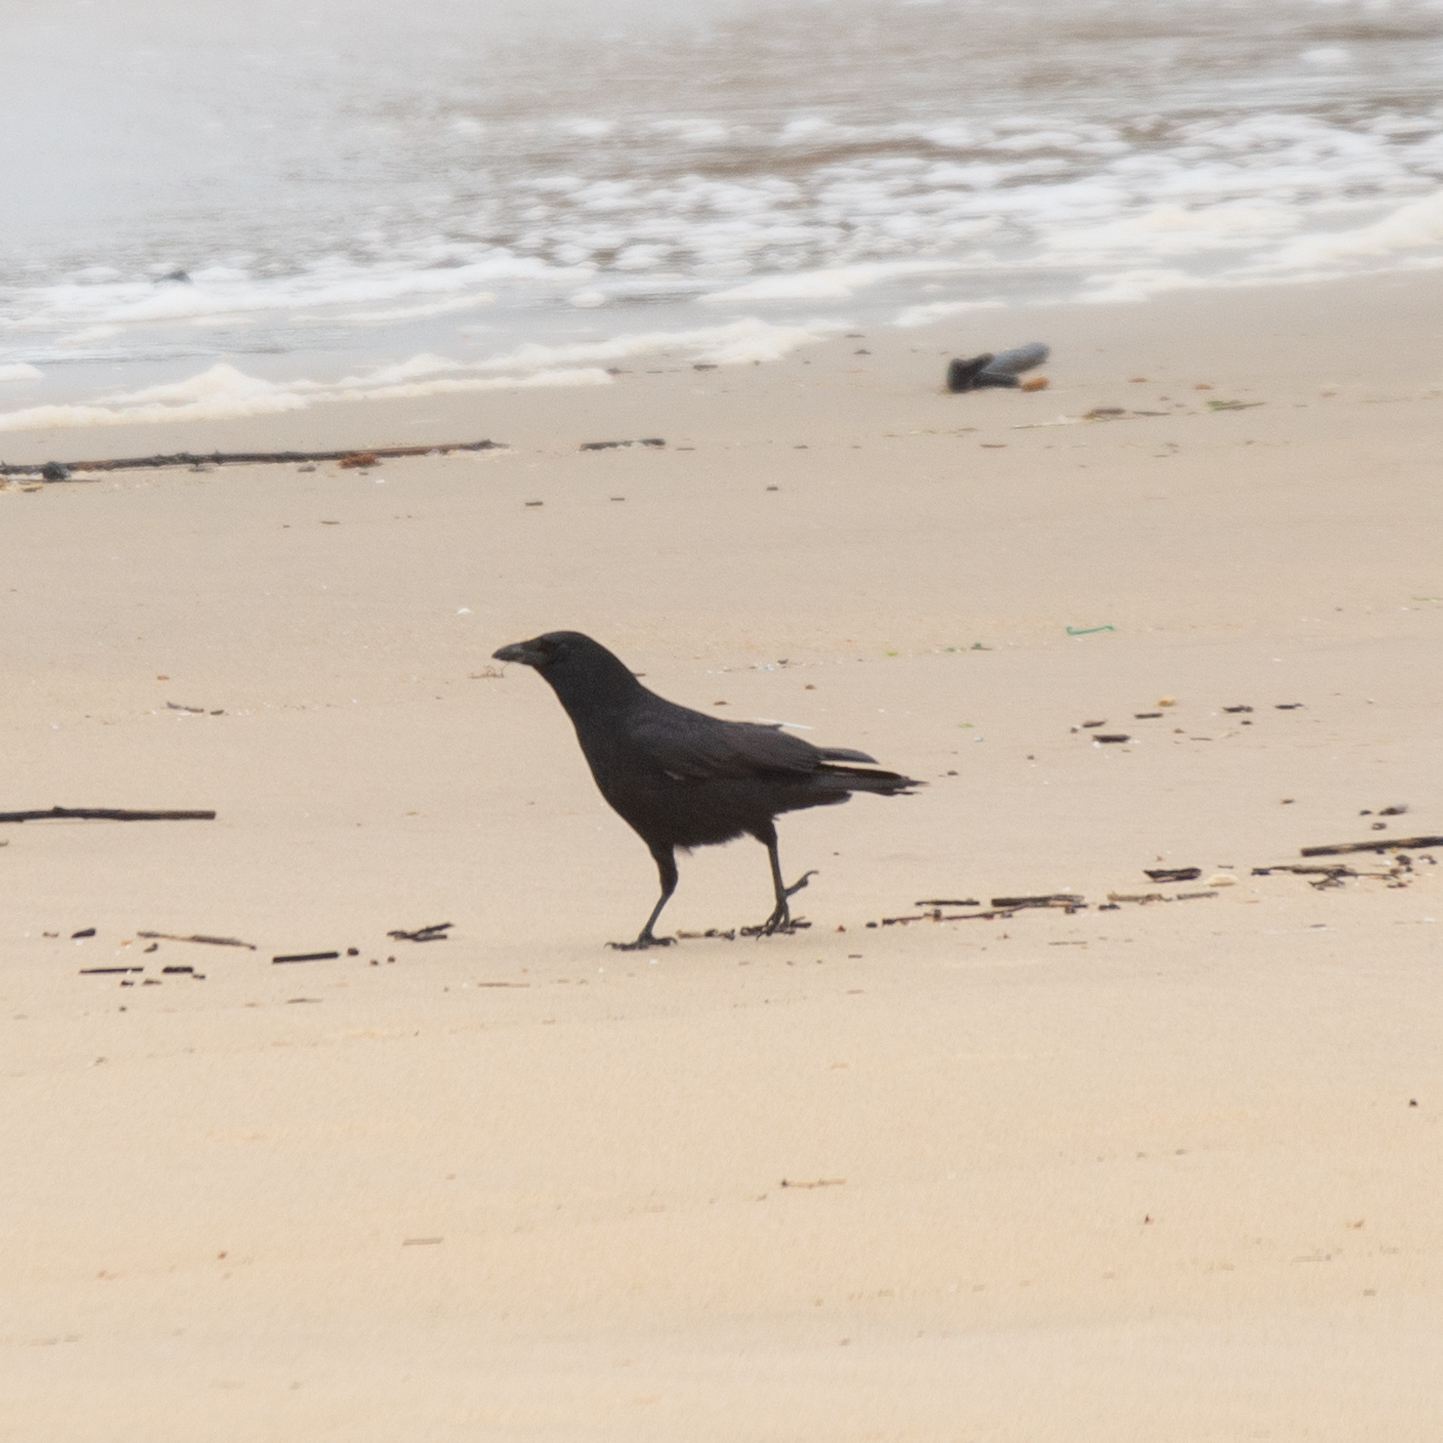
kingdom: Animalia
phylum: Chordata
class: Aves
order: Passeriformes
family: Corvidae
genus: Corvus
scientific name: Corvus corone
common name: Carrion crow
